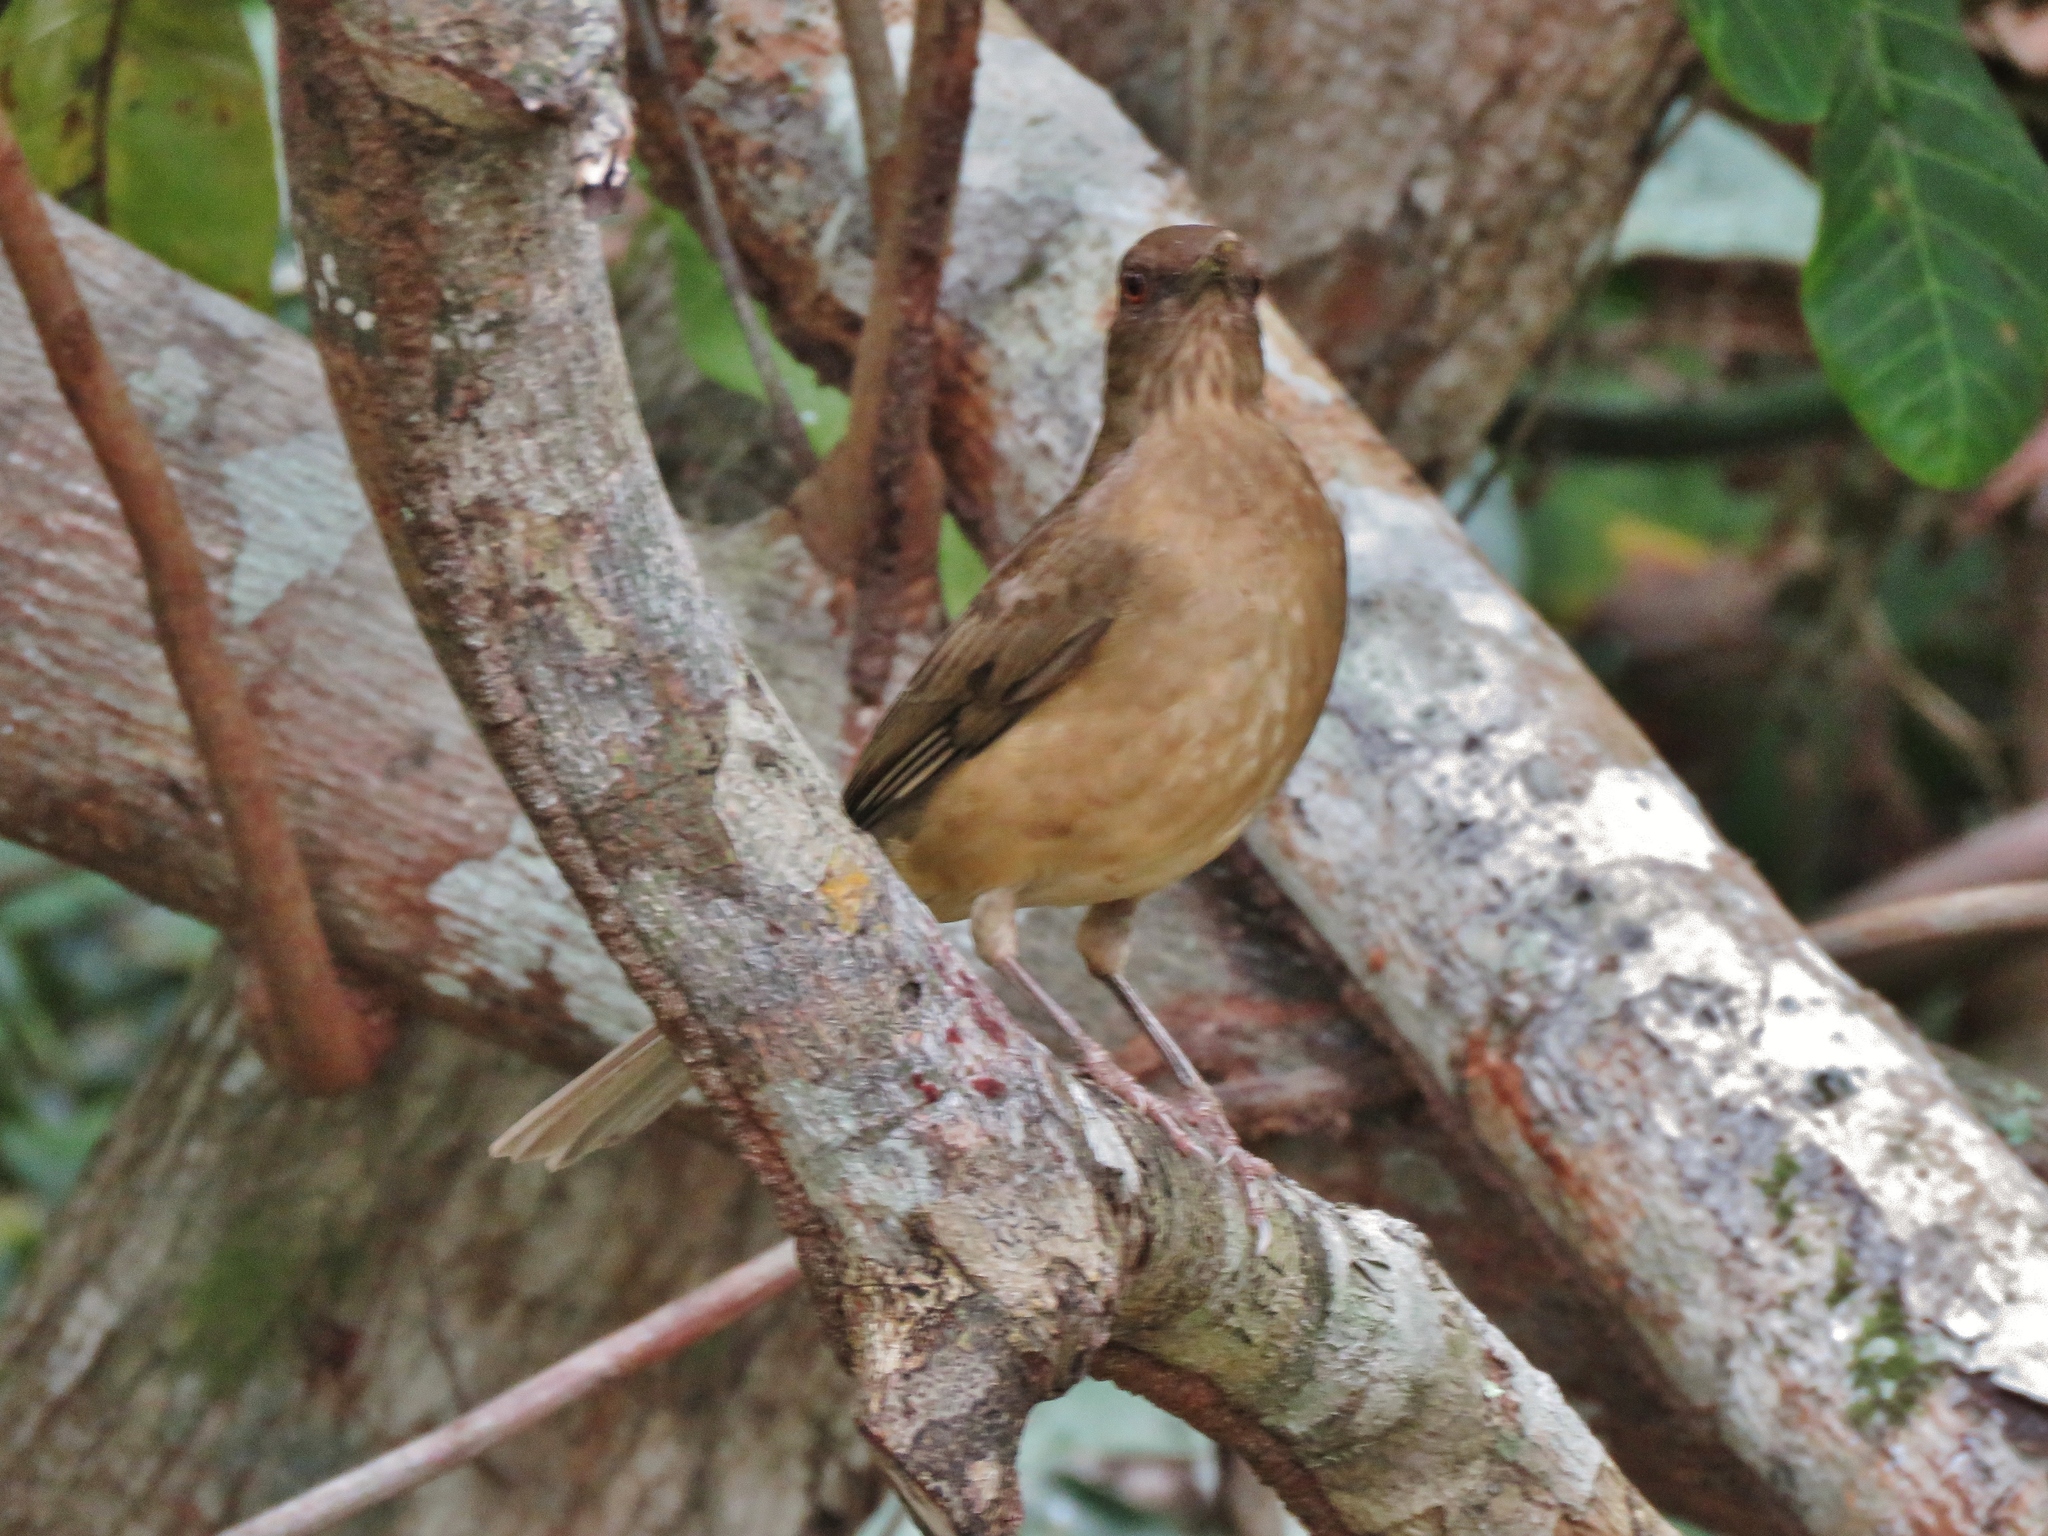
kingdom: Animalia
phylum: Chordata
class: Aves
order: Passeriformes
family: Turdidae
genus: Turdus
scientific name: Turdus grayi
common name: Clay-colored thrush
